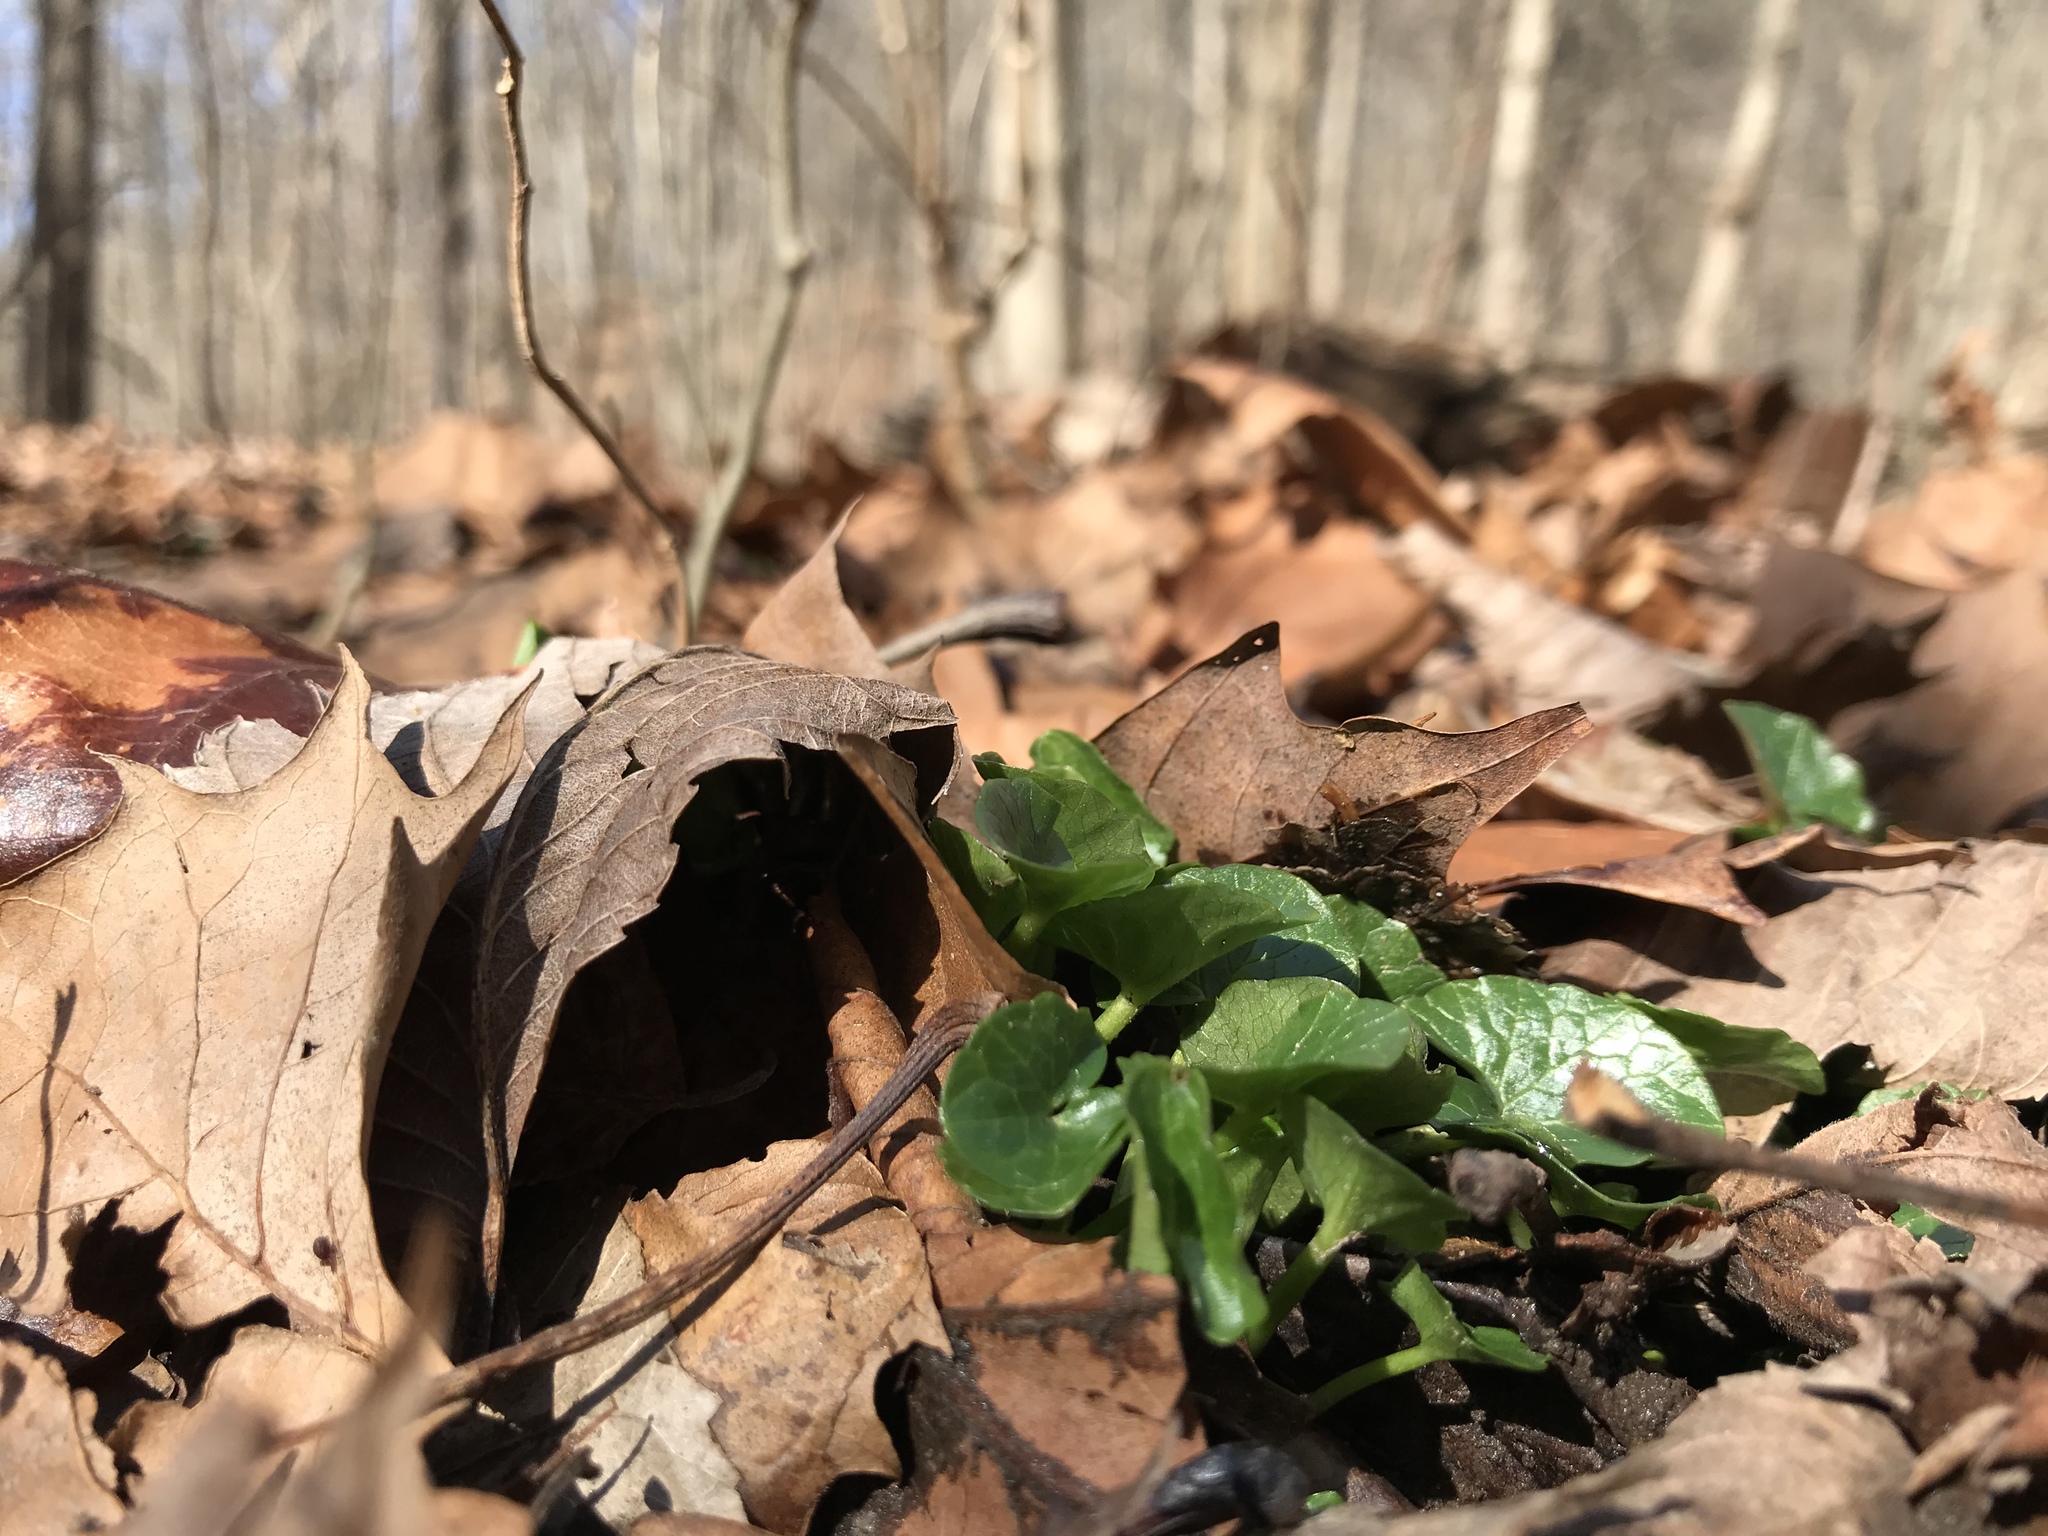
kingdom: Plantae
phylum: Tracheophyta
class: Magnoliopsida
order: Ranunculales
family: Ranunculaceae
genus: Ficaria
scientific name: Ficaria verna
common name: Lesser celandine
